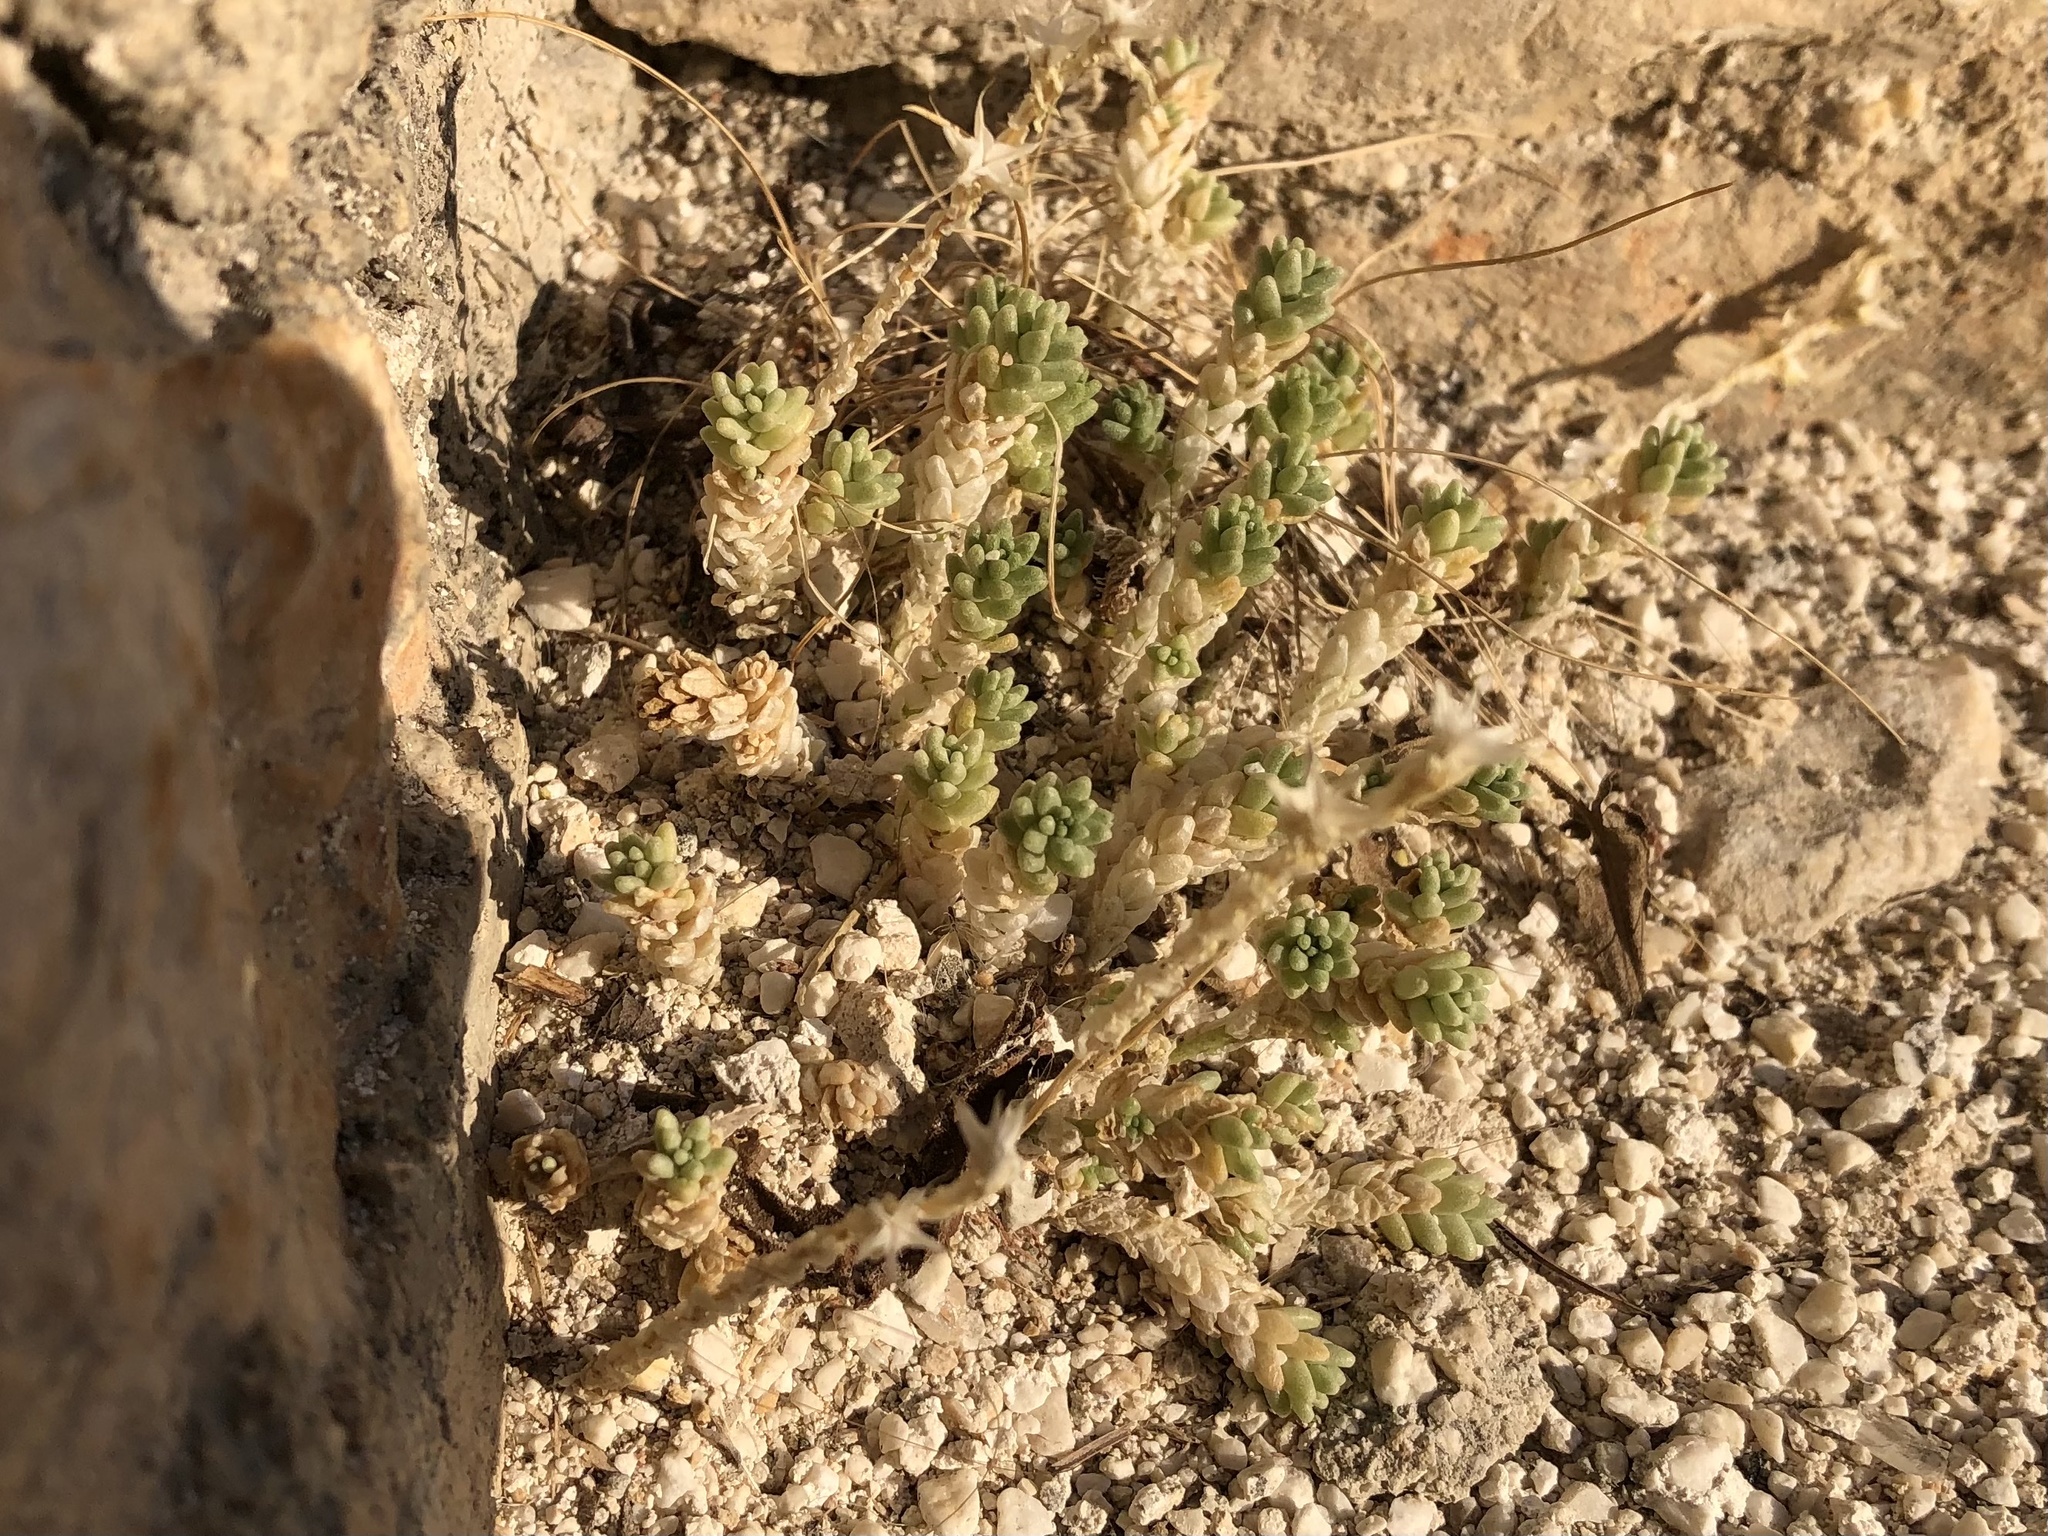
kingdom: Plantae
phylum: Tracheophyta
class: Magnoliopsida
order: Saxifragales
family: Crassulaceae
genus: Sedum
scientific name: Sedum acre
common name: Biting stonecrop
